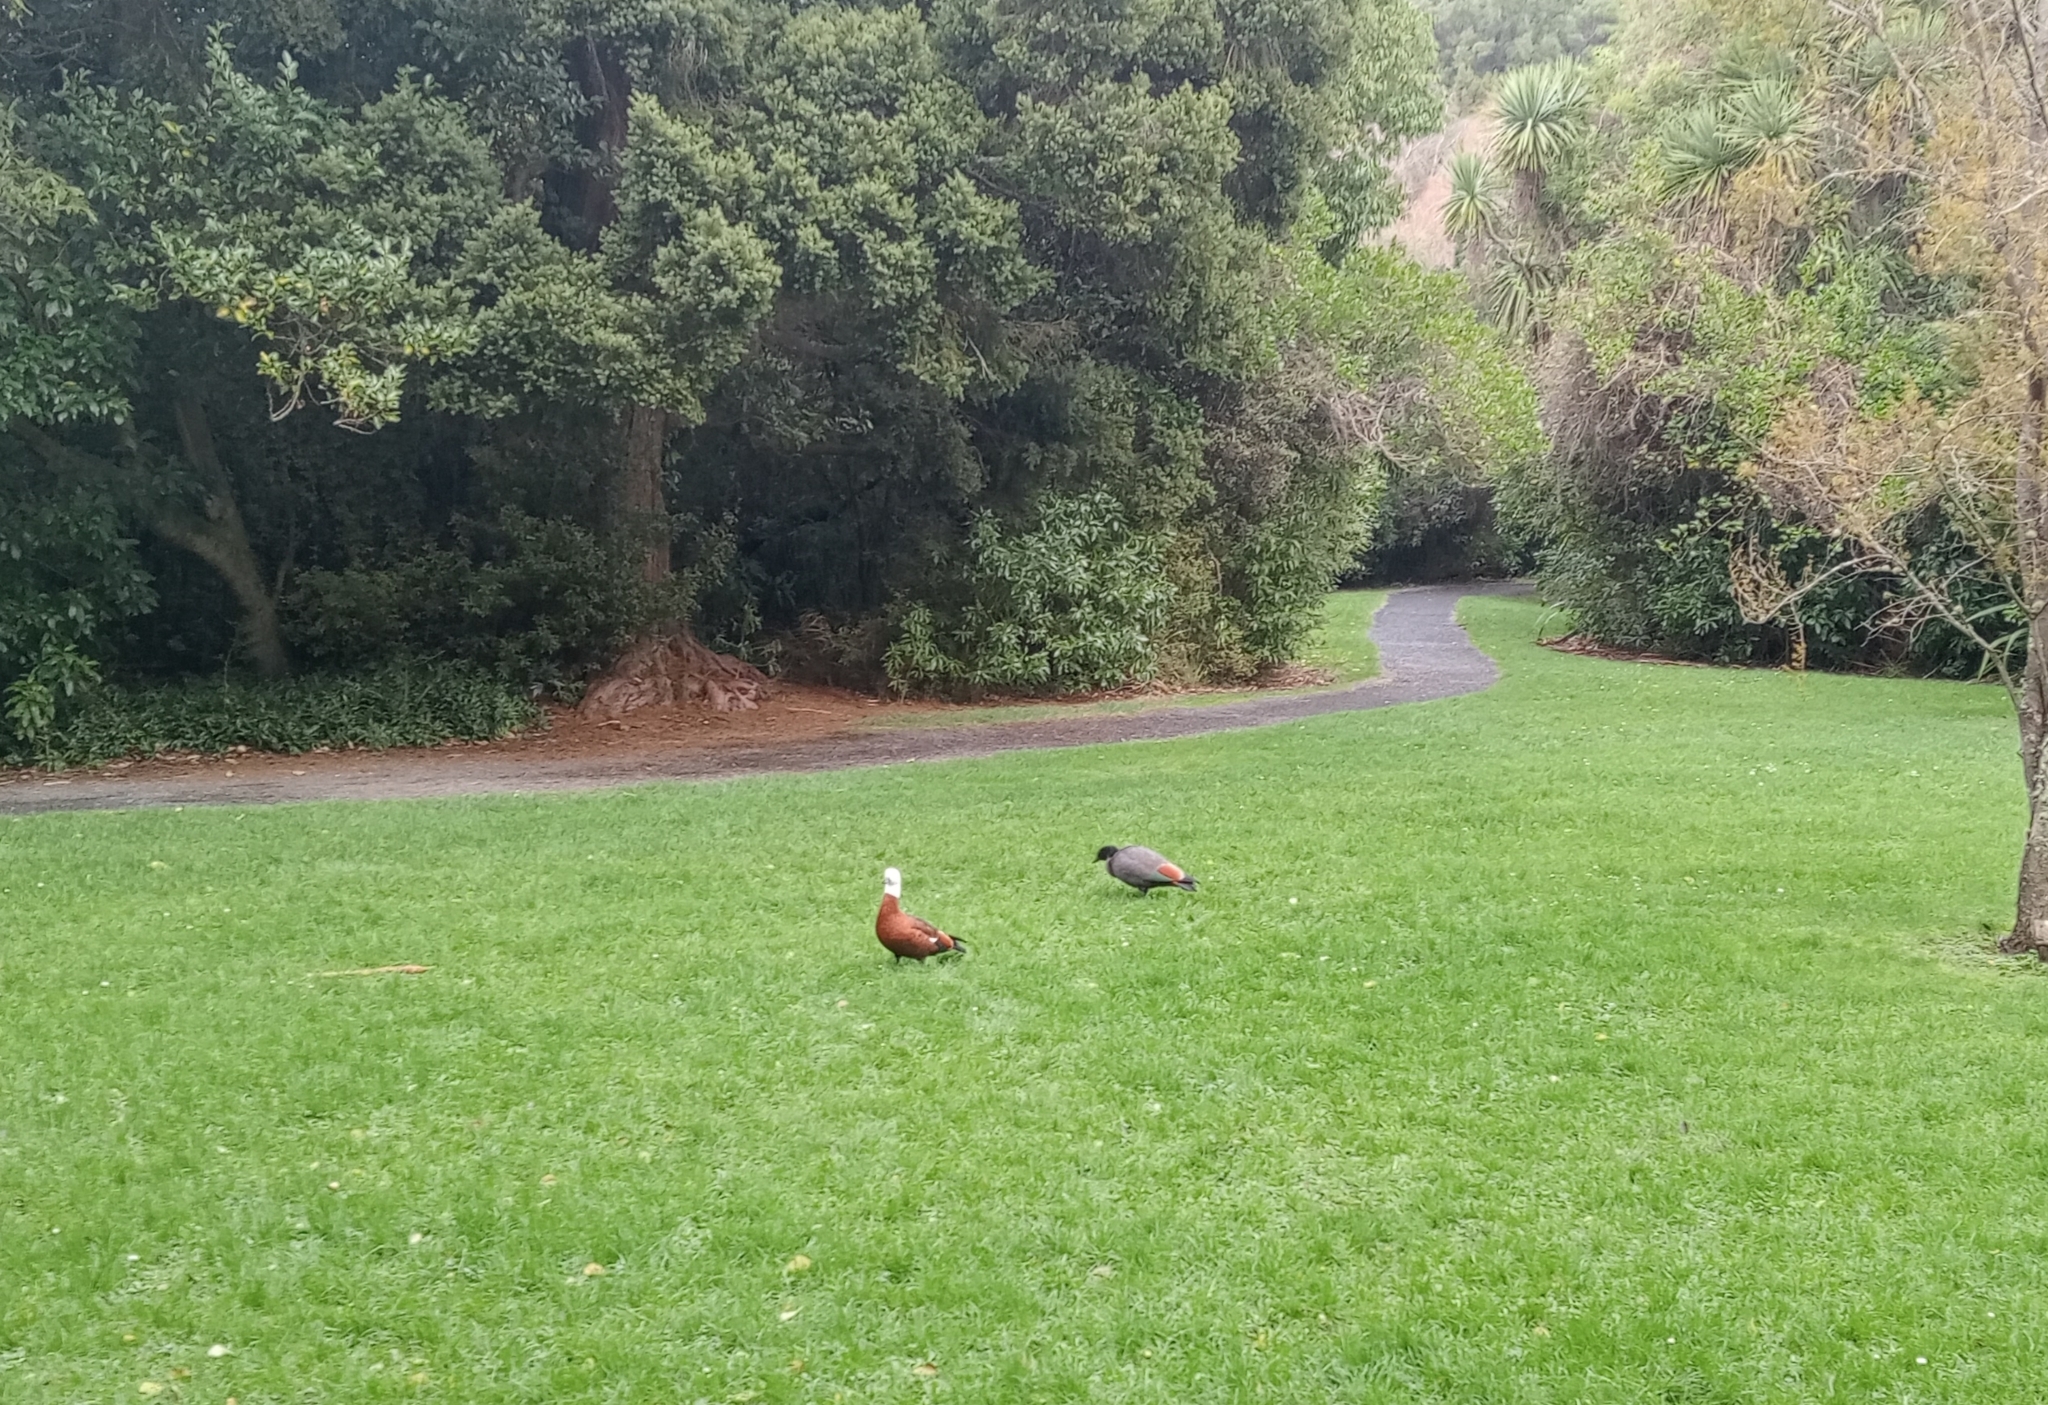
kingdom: Animalia
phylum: Chordata
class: Aves
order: Anseriformes
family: Anatidae
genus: Tadorna
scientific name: Tadorna variegata
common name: Paradise shelduck
